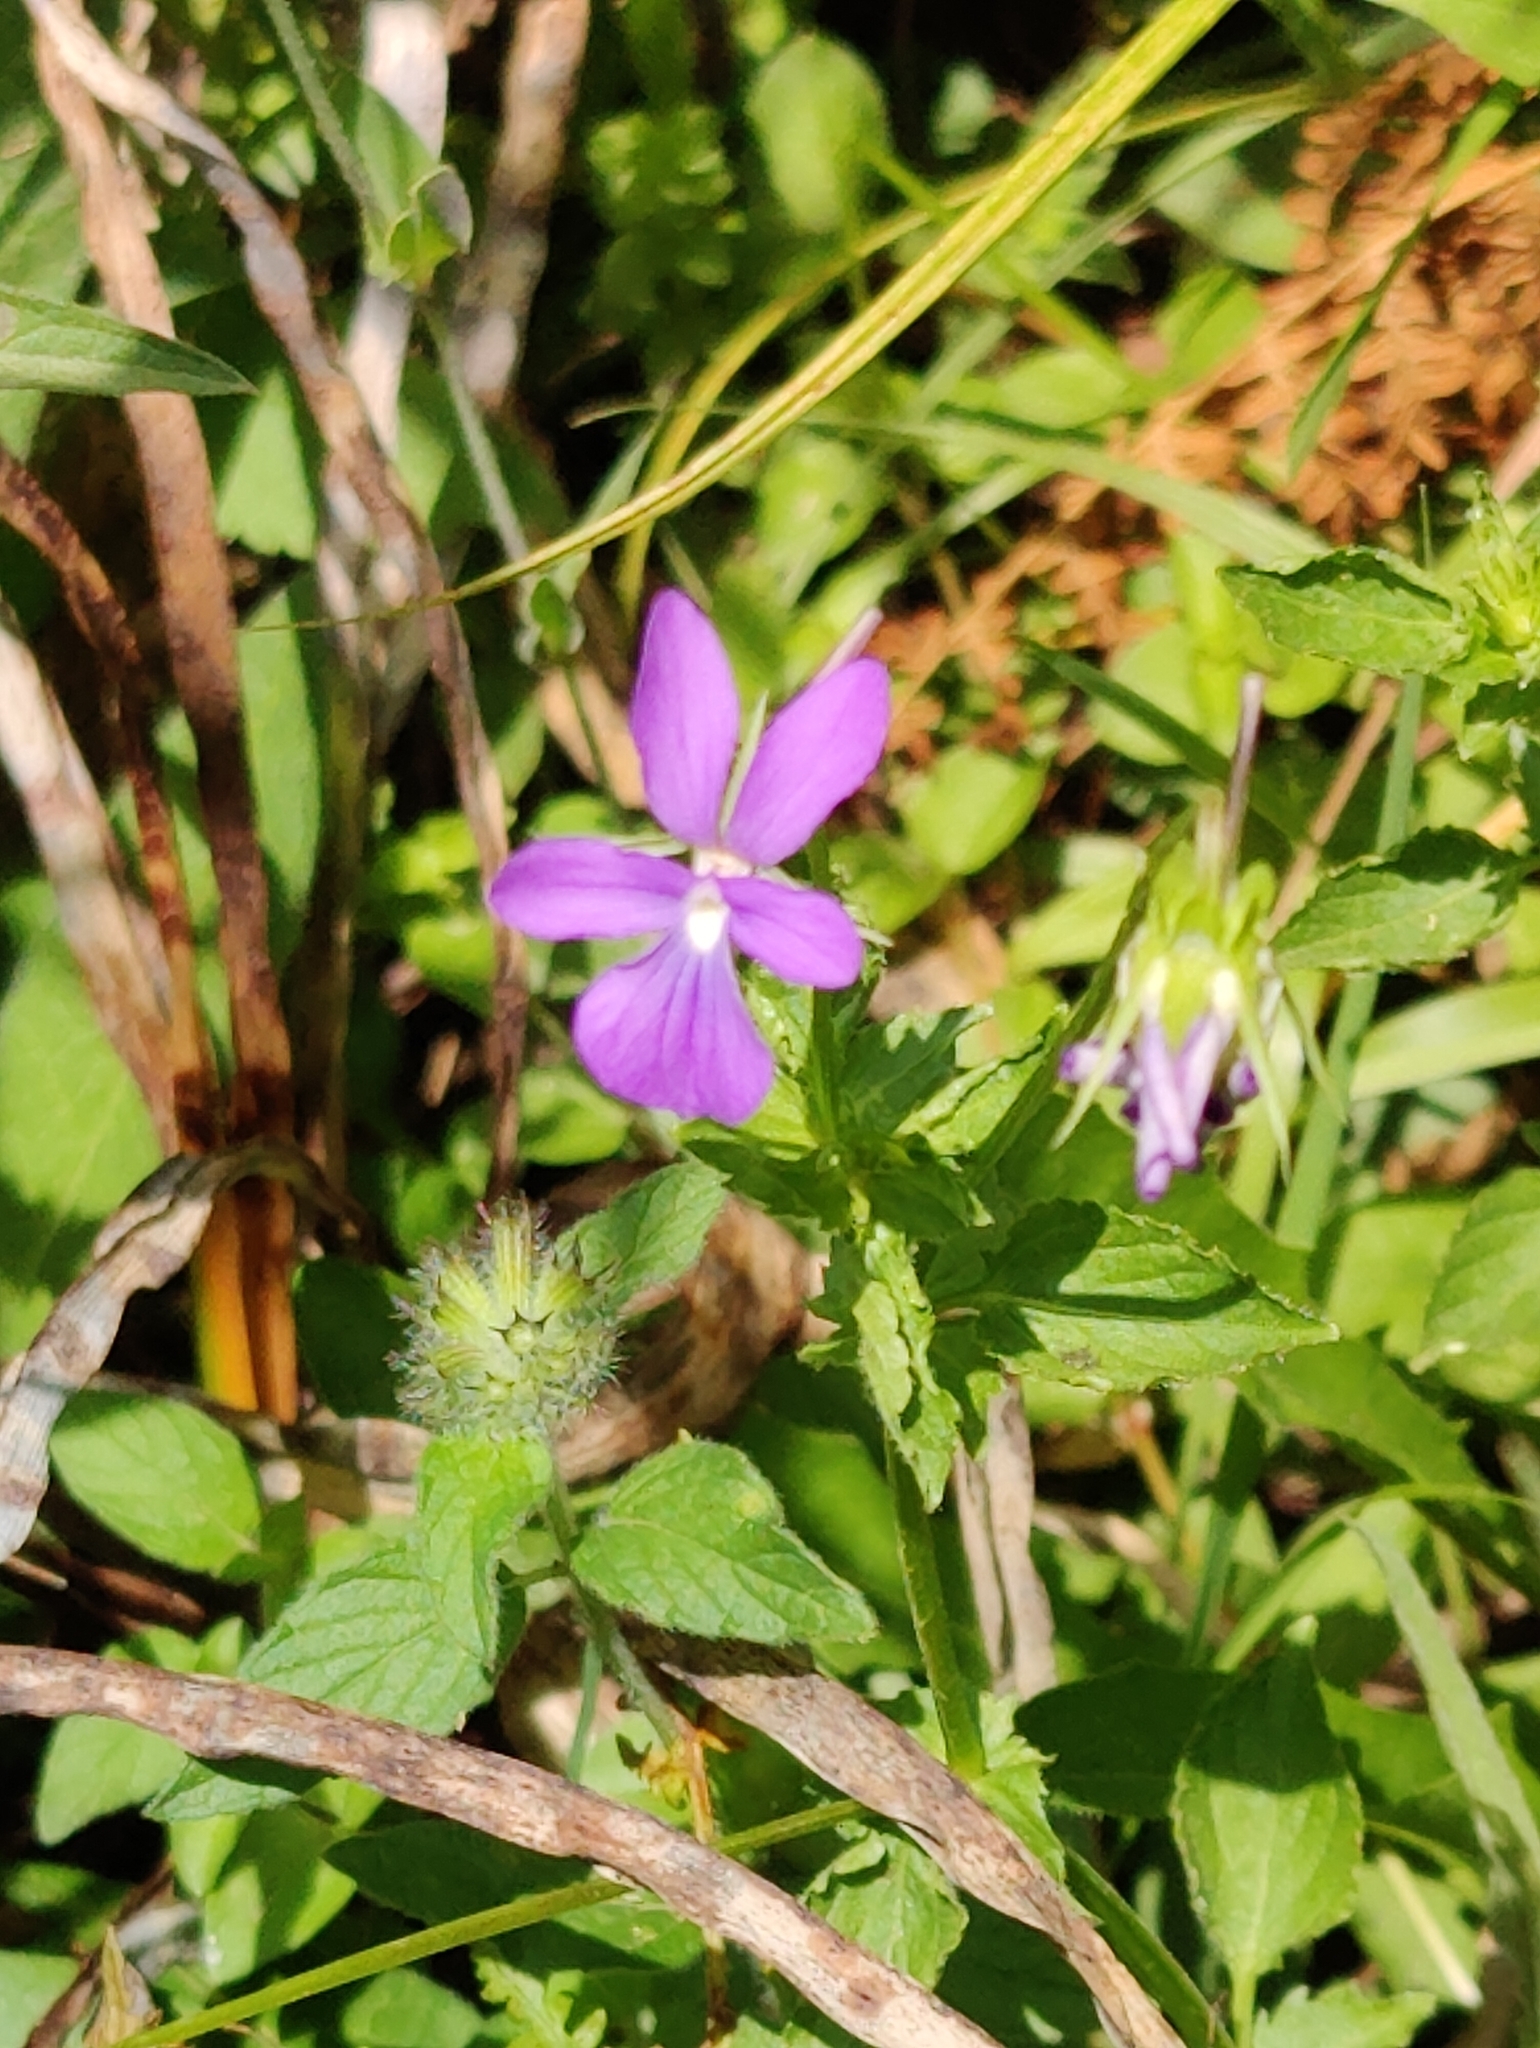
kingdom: Plantae
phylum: Tracheophyta
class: Magnoliopsida
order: Malpighiales
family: Violaceae
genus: Viola
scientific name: Viola cornuta
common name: Horned pansy
